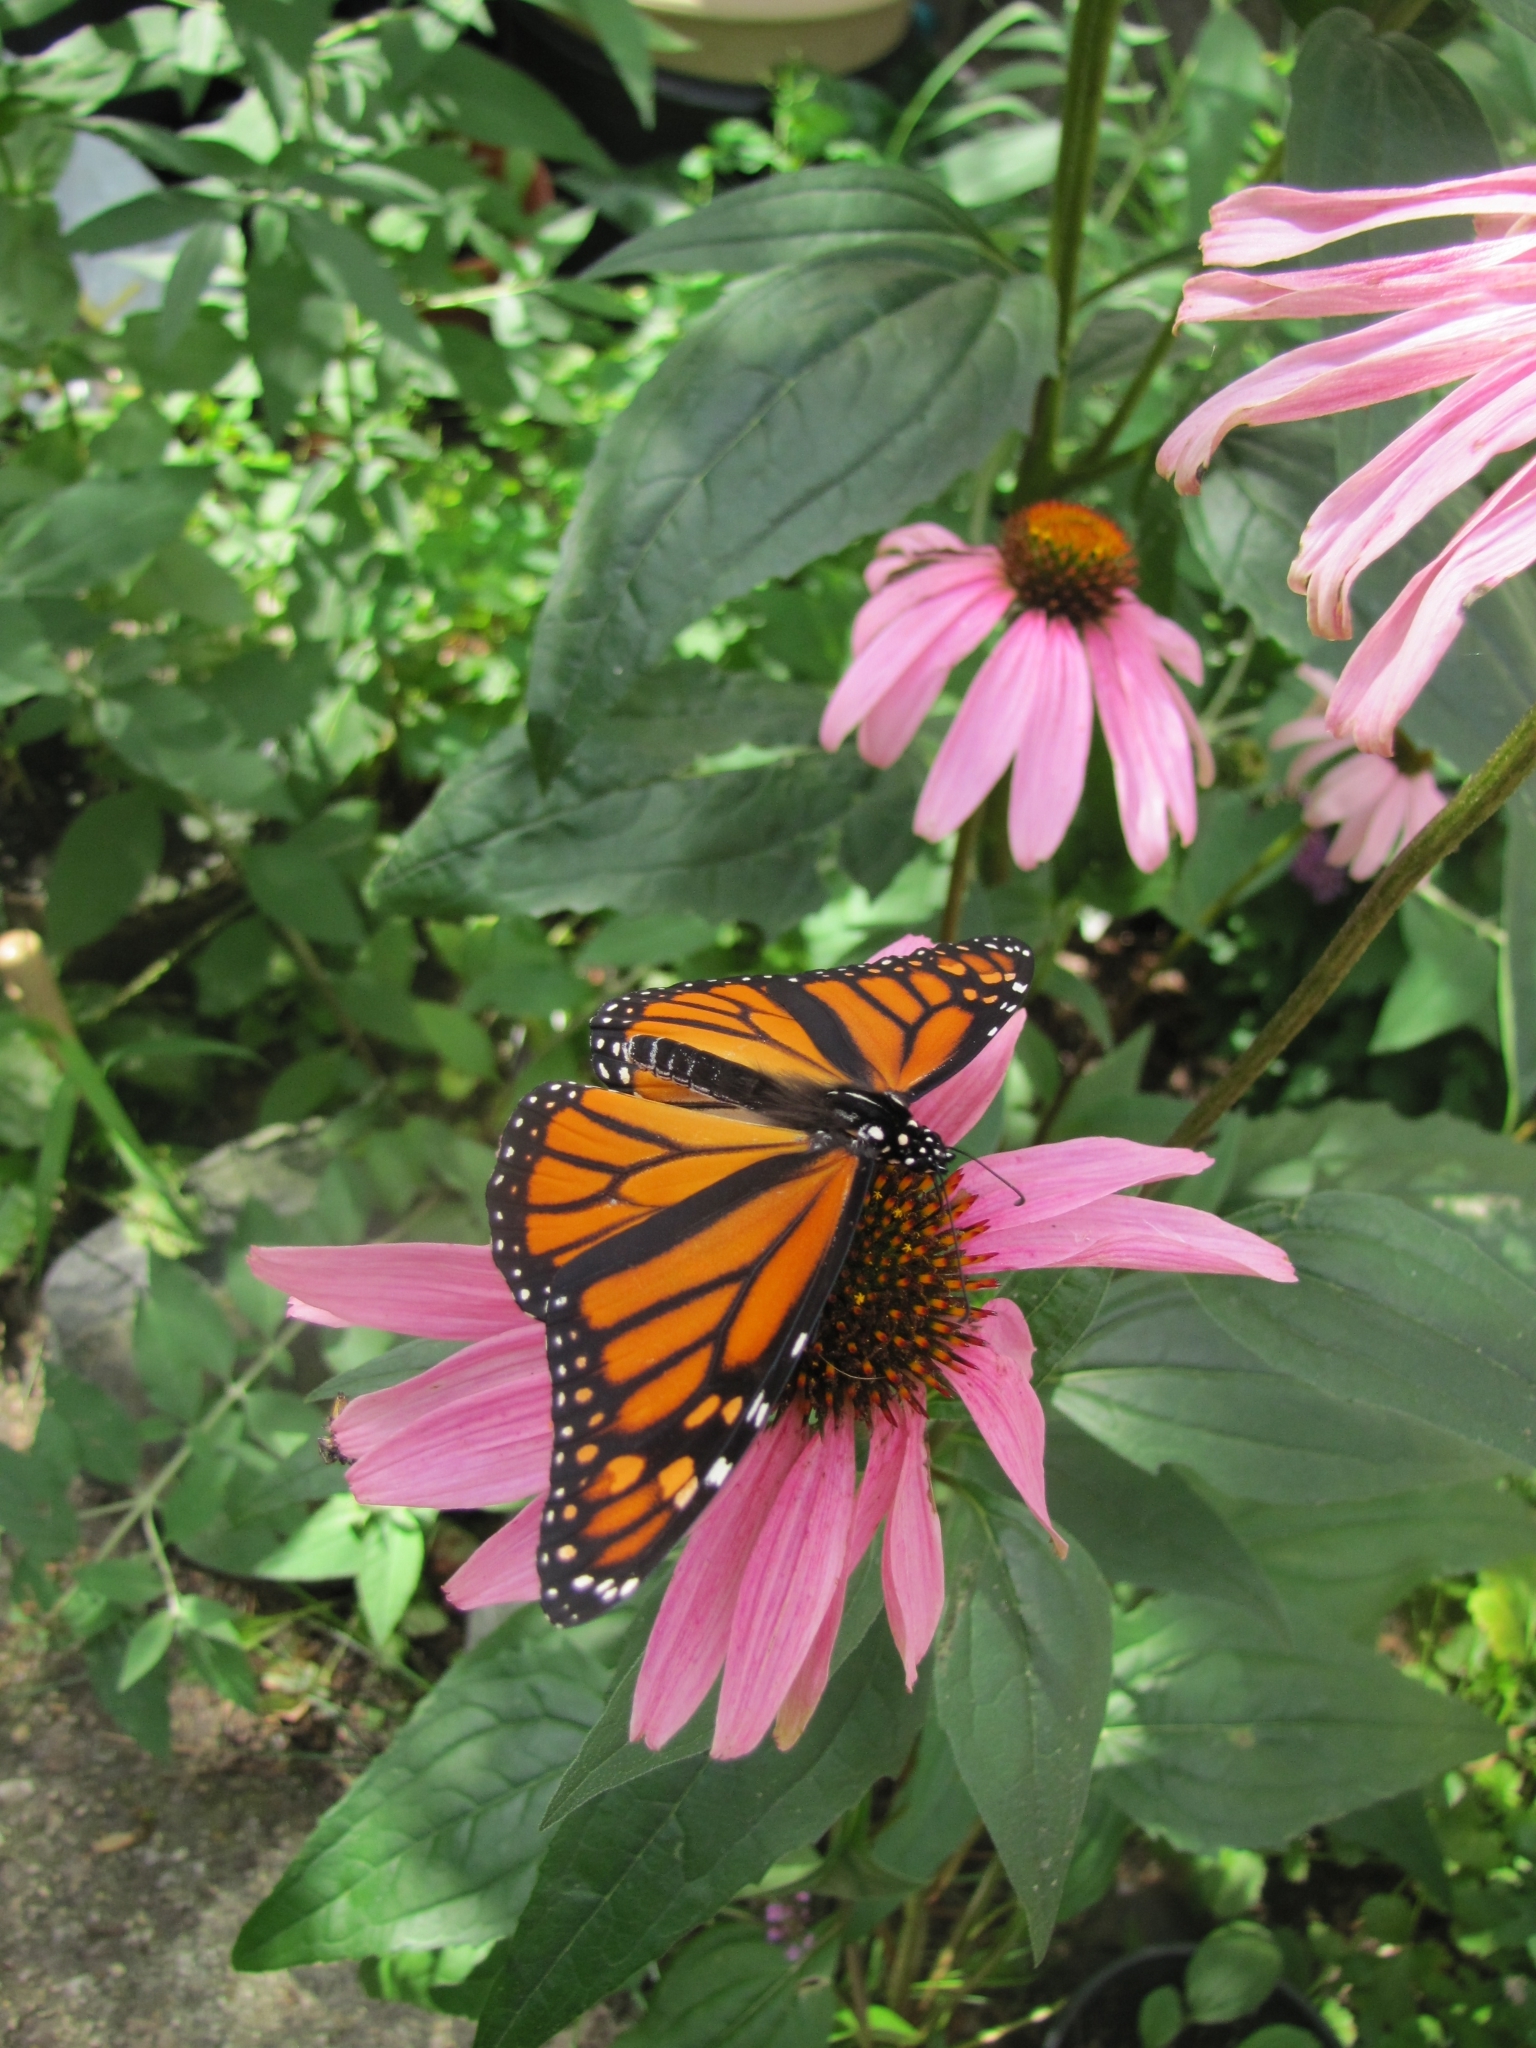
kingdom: Animalia
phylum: Arthropoda
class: Insecta
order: Lepidoptera
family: Nymphalidae
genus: Danaus
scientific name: Danaus plexippus
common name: Monarch
